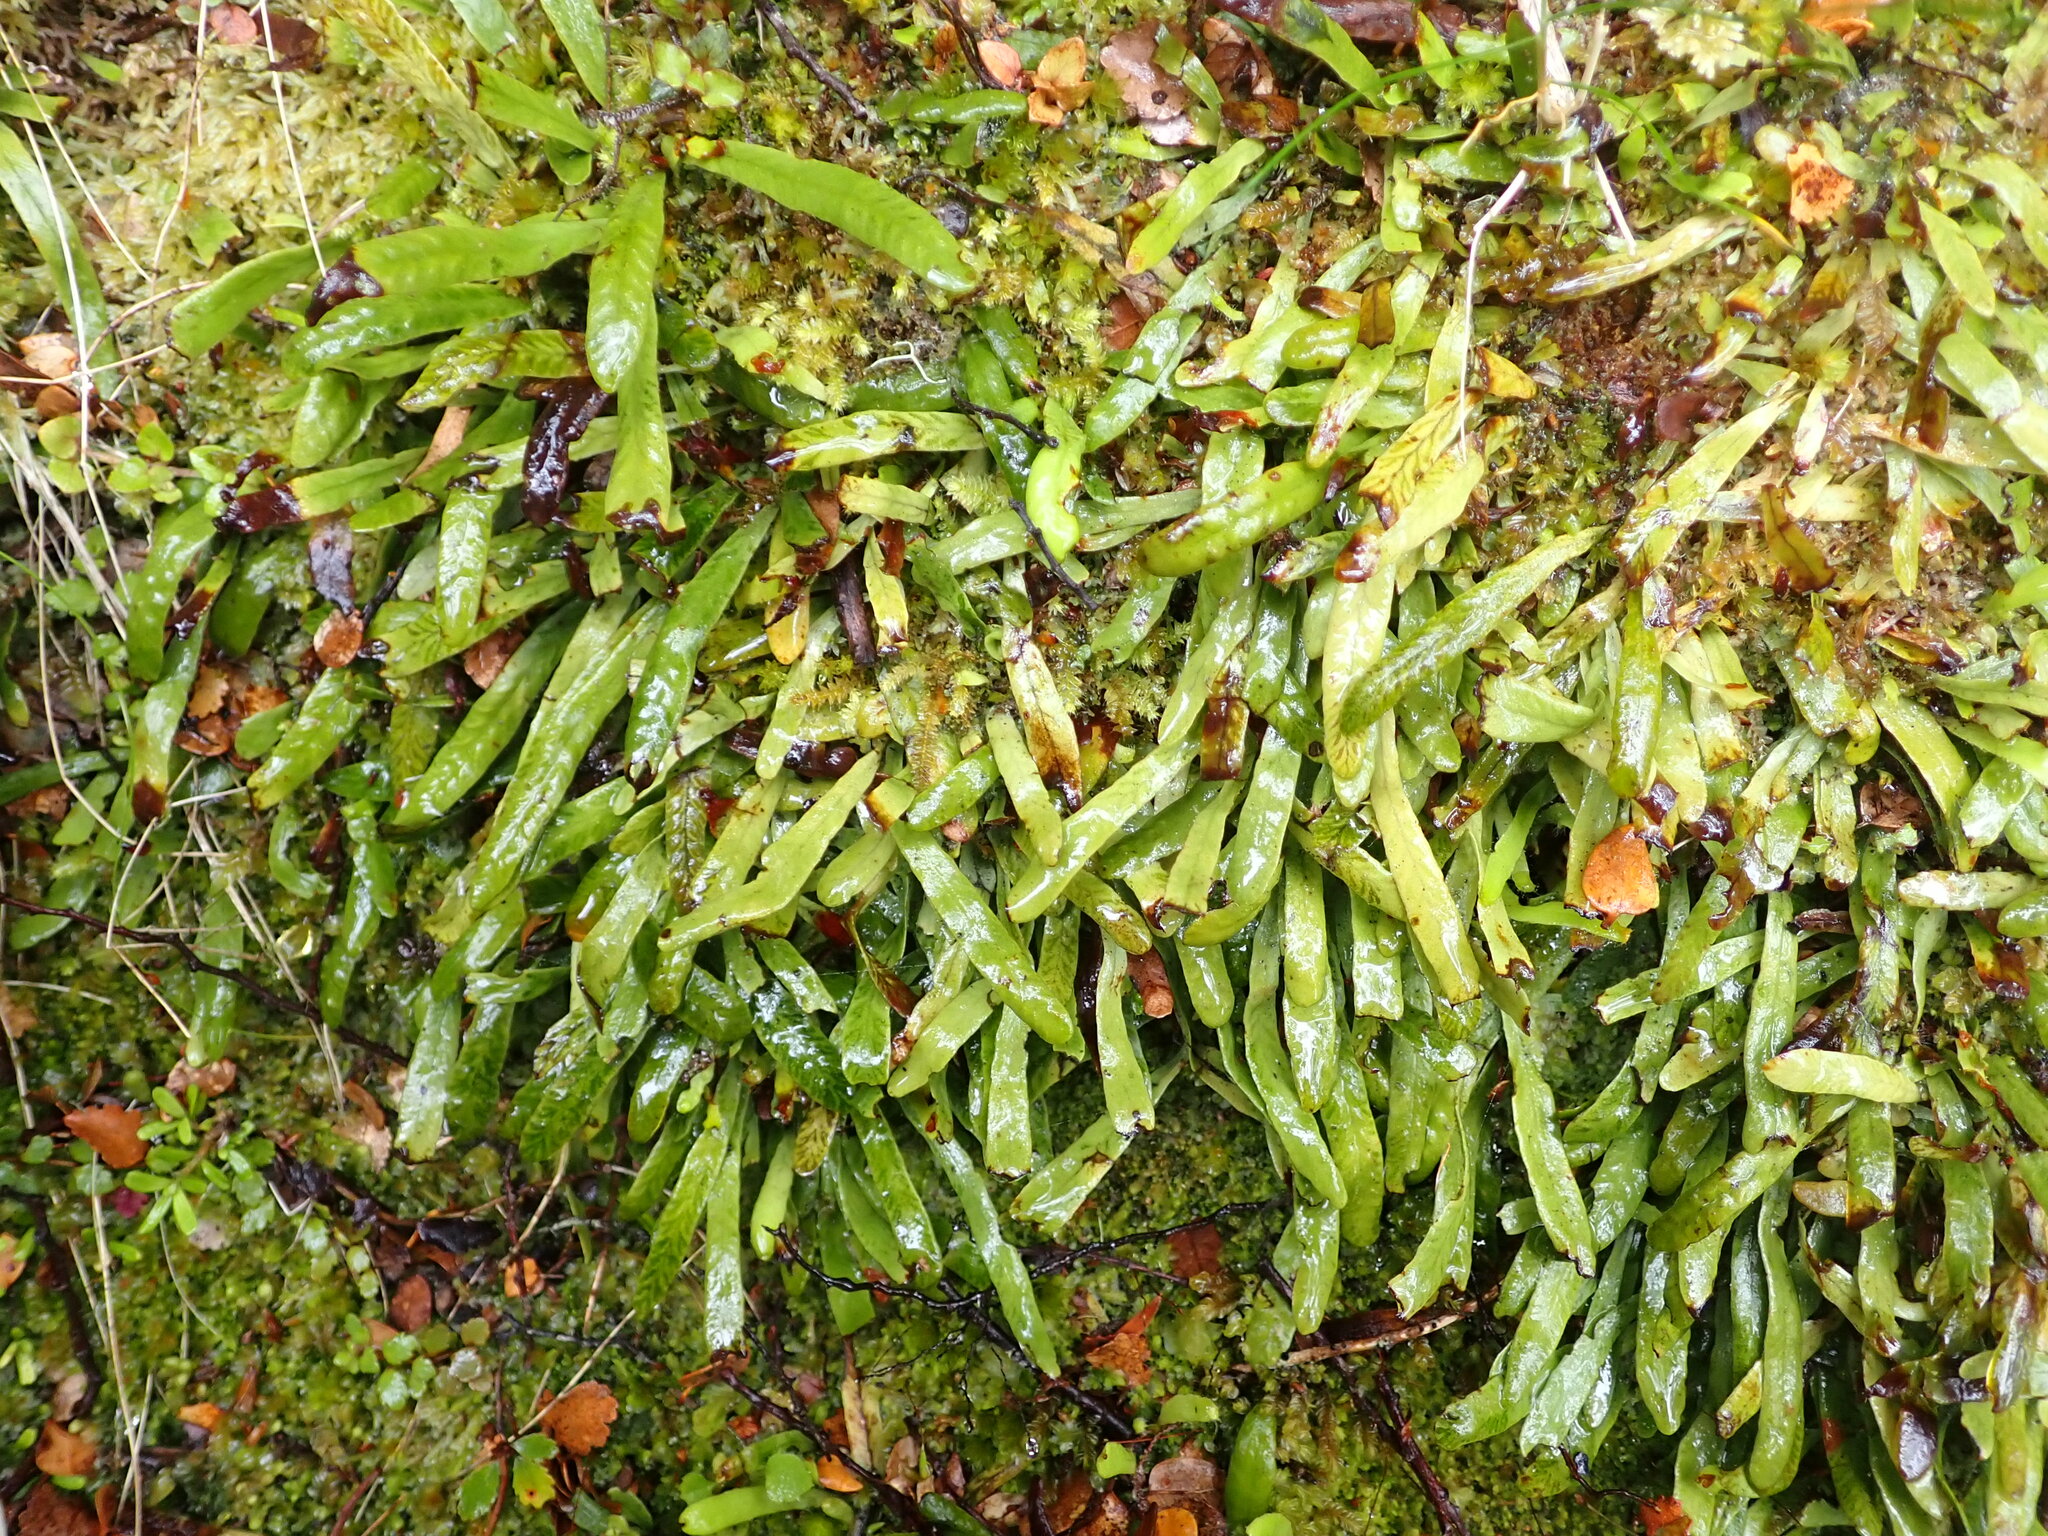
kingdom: Plantae
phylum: Tracheophyta
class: Polypodiopsida
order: Polypodiales
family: Polypodiaceae
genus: Notogrammitis
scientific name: Notogrammitis patagonica
